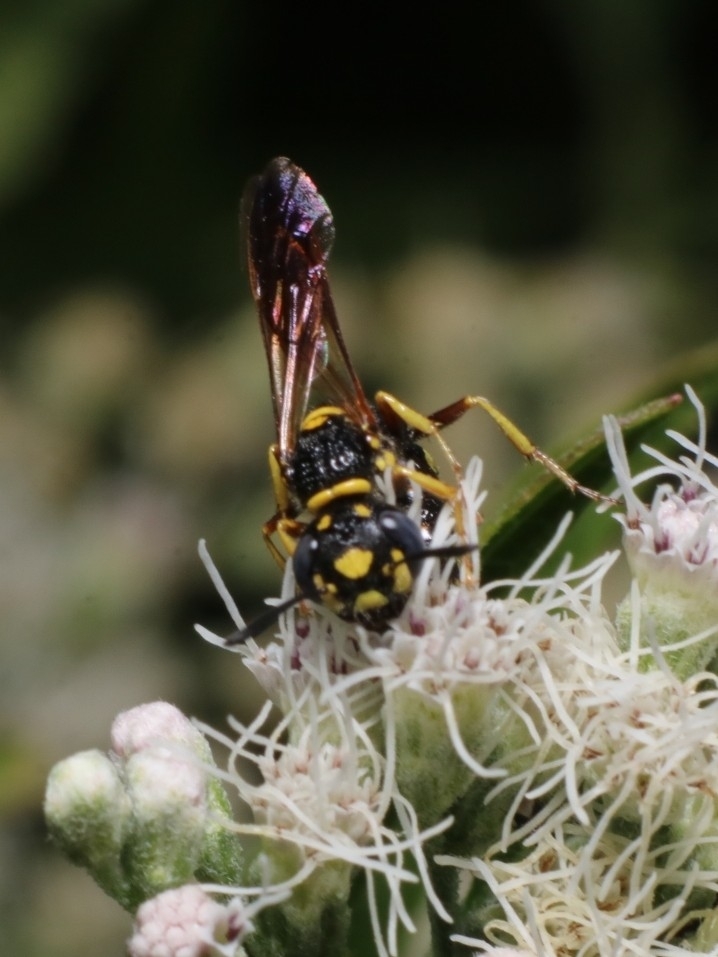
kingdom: Animalia
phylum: Arthropoda
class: Insecta
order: Hymenoptera
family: Crabronidae
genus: Philanthus
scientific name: Philanthus gibbosus
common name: Humped beewolf
